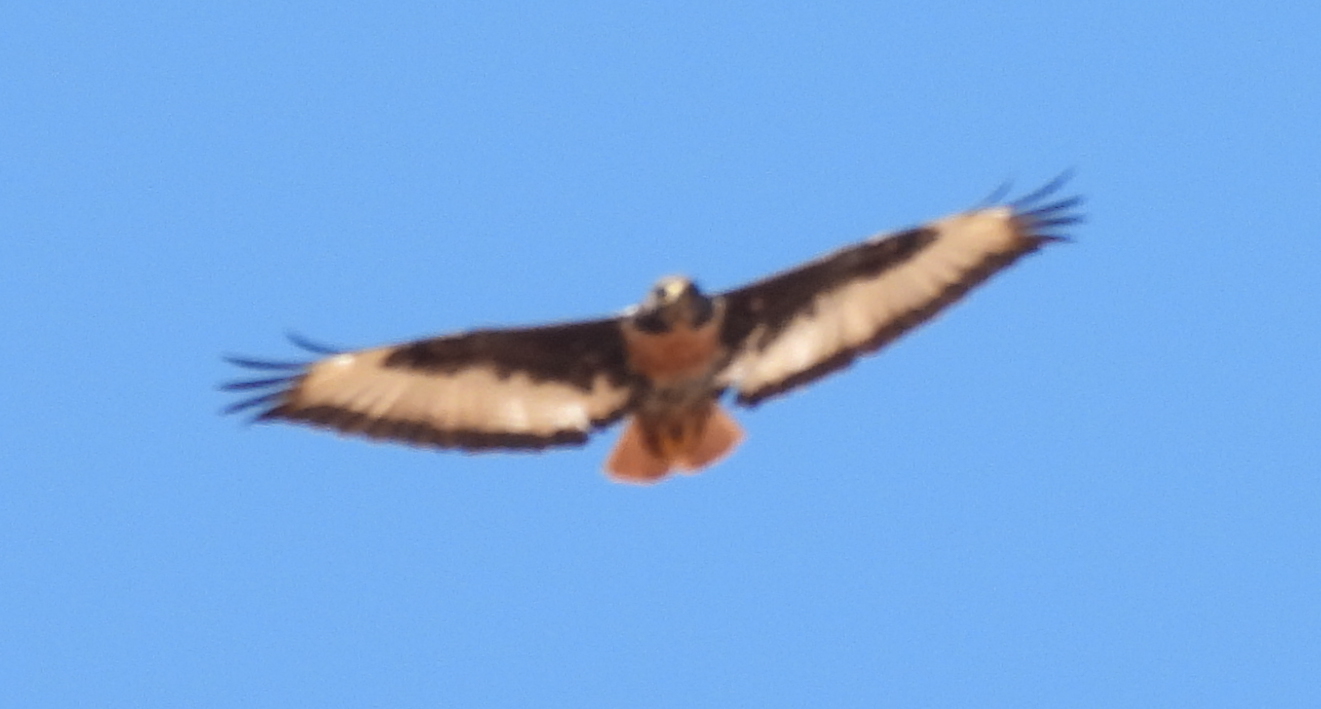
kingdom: Animalia
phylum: Chordata
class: Aves
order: Accipitriformes
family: Accipitridae
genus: Buteo
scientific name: Buteo rufofuscus
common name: Jackal buzzard
